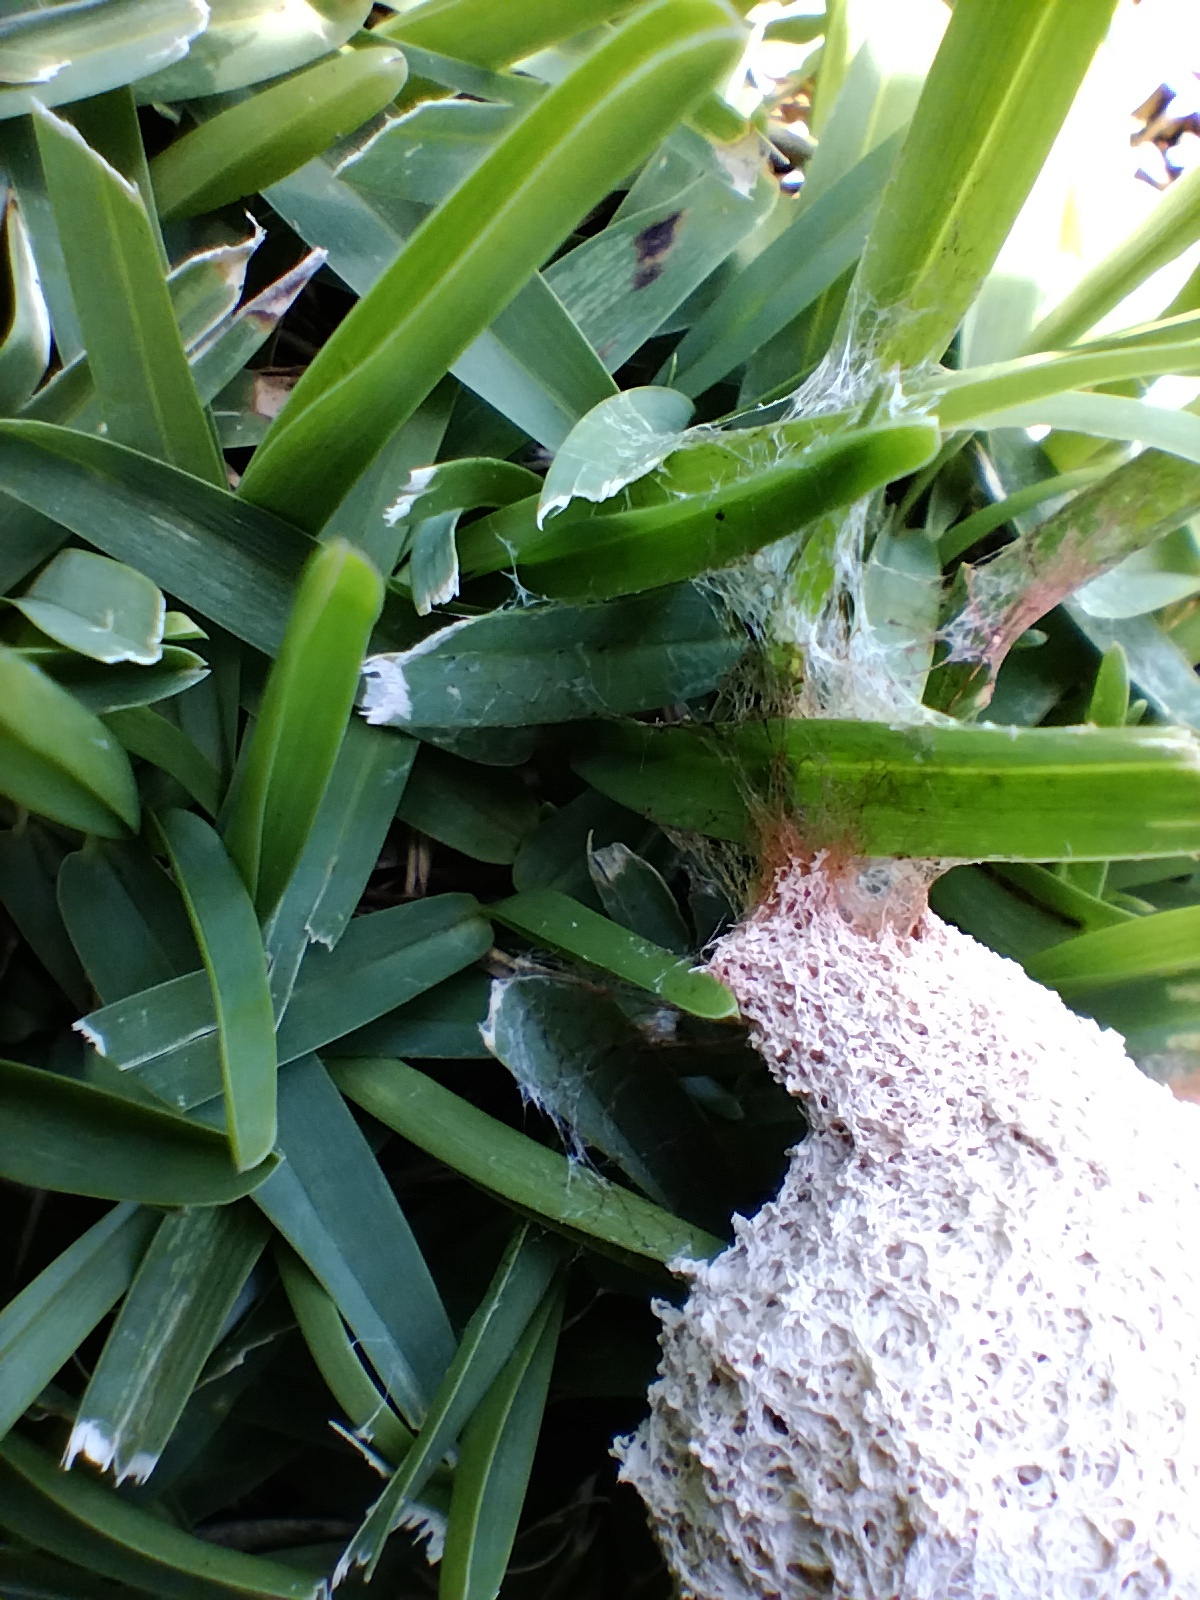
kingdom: Protozoa
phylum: Mycetozoa
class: Myxomycetes
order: Physarales
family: Physaraceae
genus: Fuligo
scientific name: Fuligo septica
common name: Dog vomit slime mold
